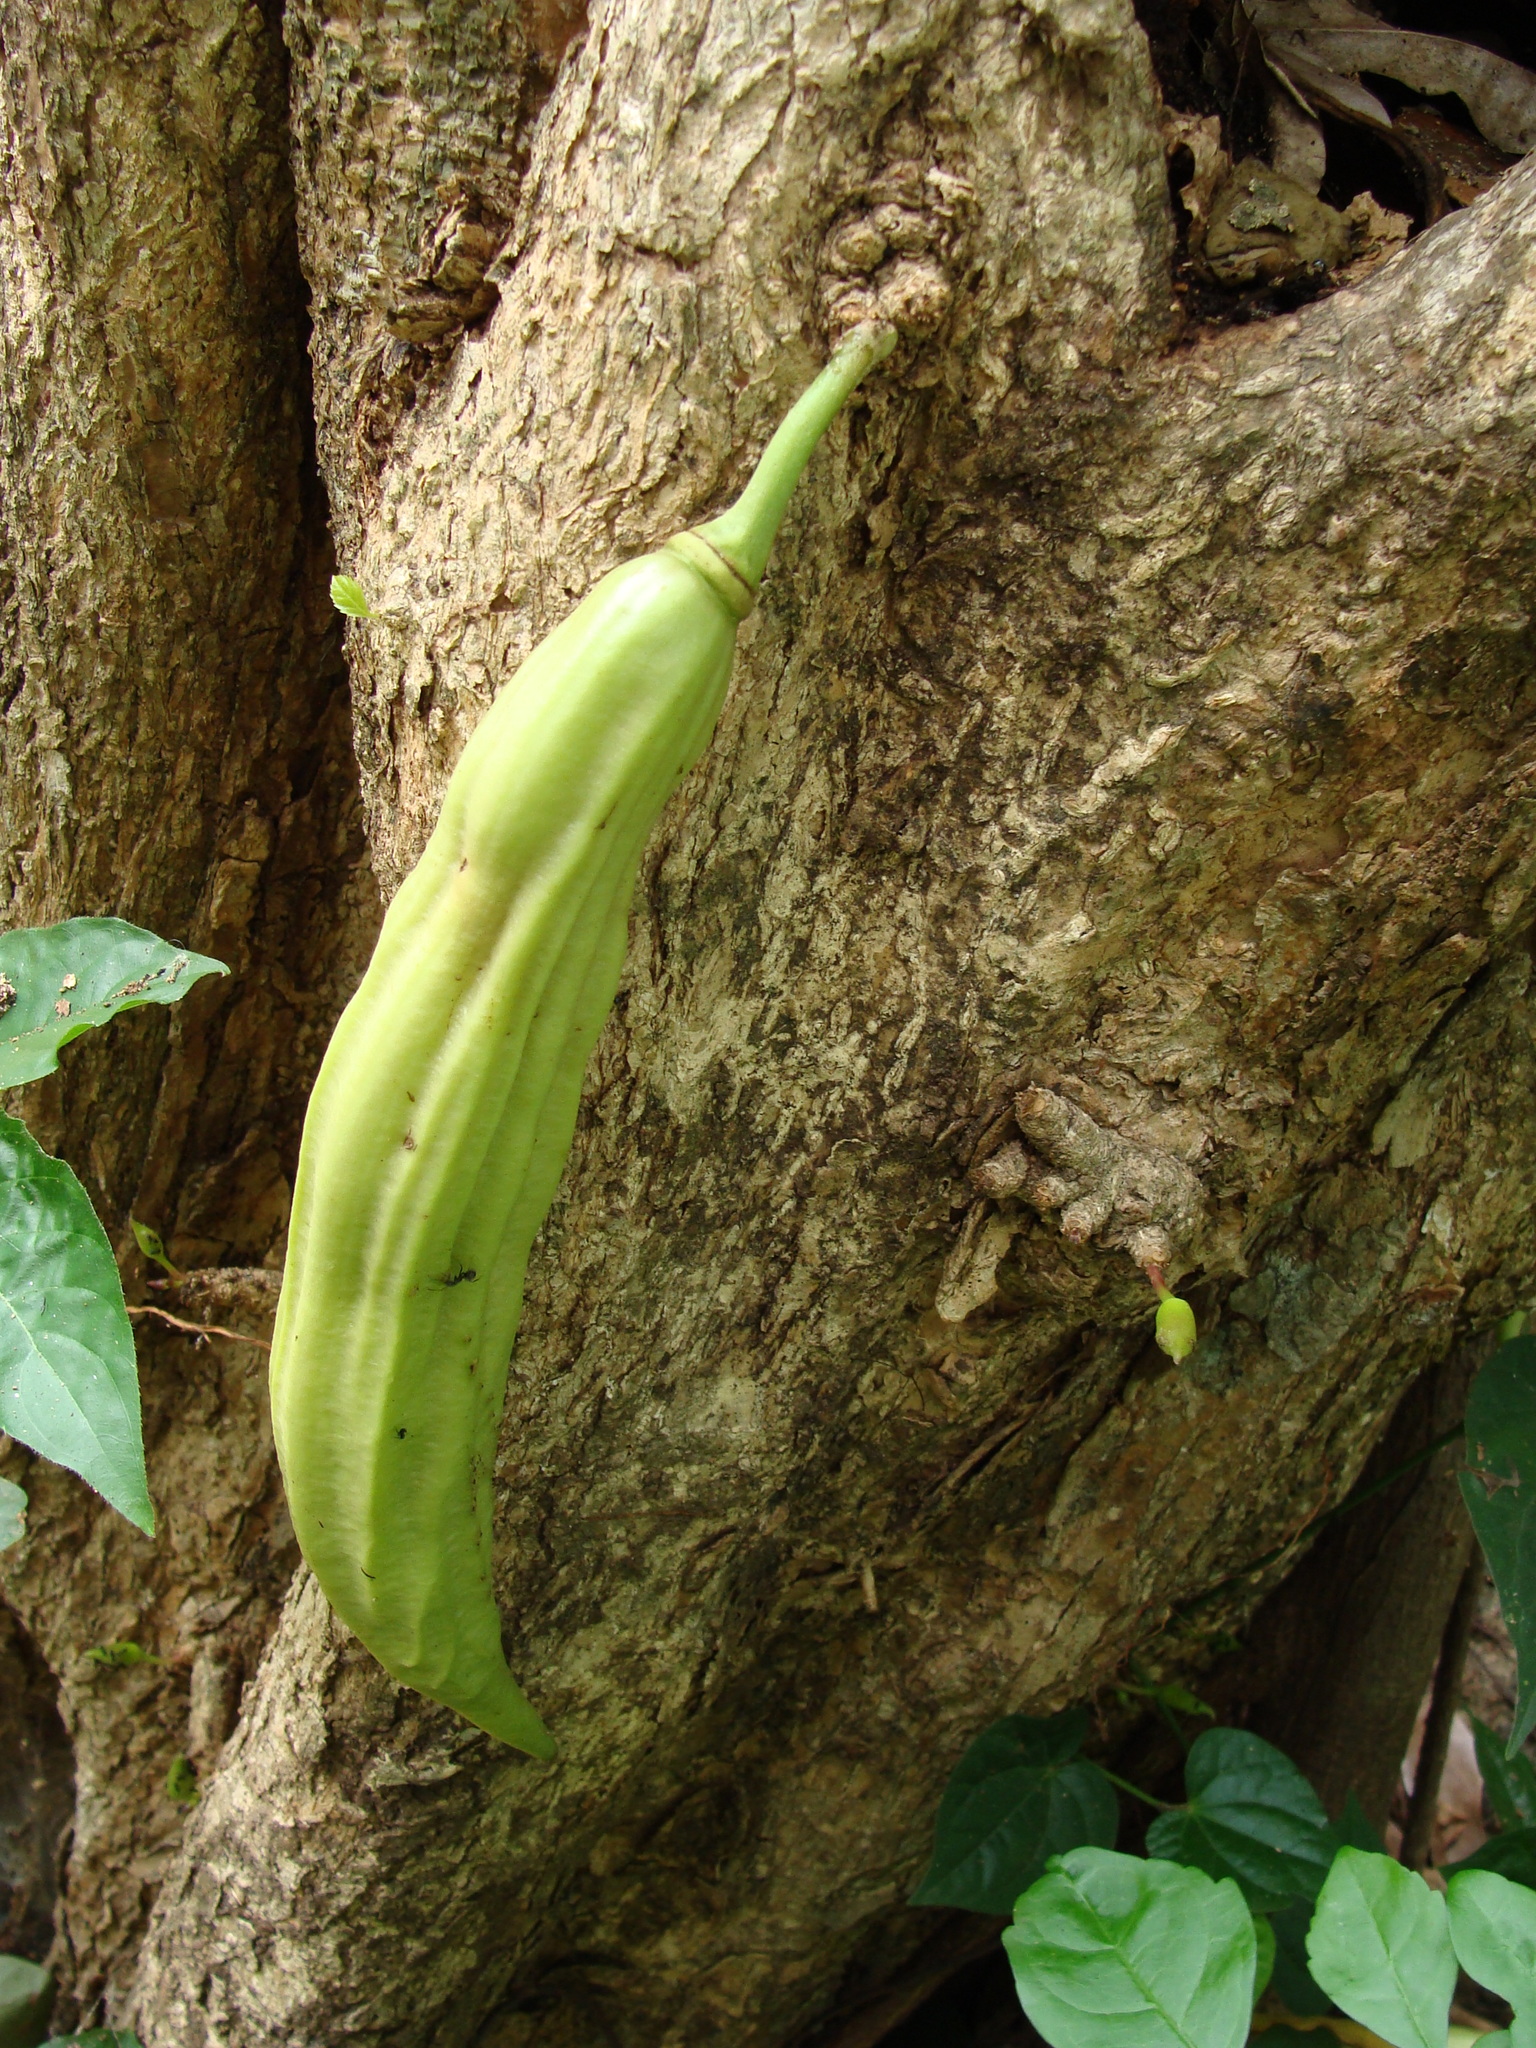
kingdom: Plantae
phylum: Tracheophyta
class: Magnoliopsida
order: Lamiales
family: Bignoniaceae
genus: Parmentiera
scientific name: Parmentiera aculeata
